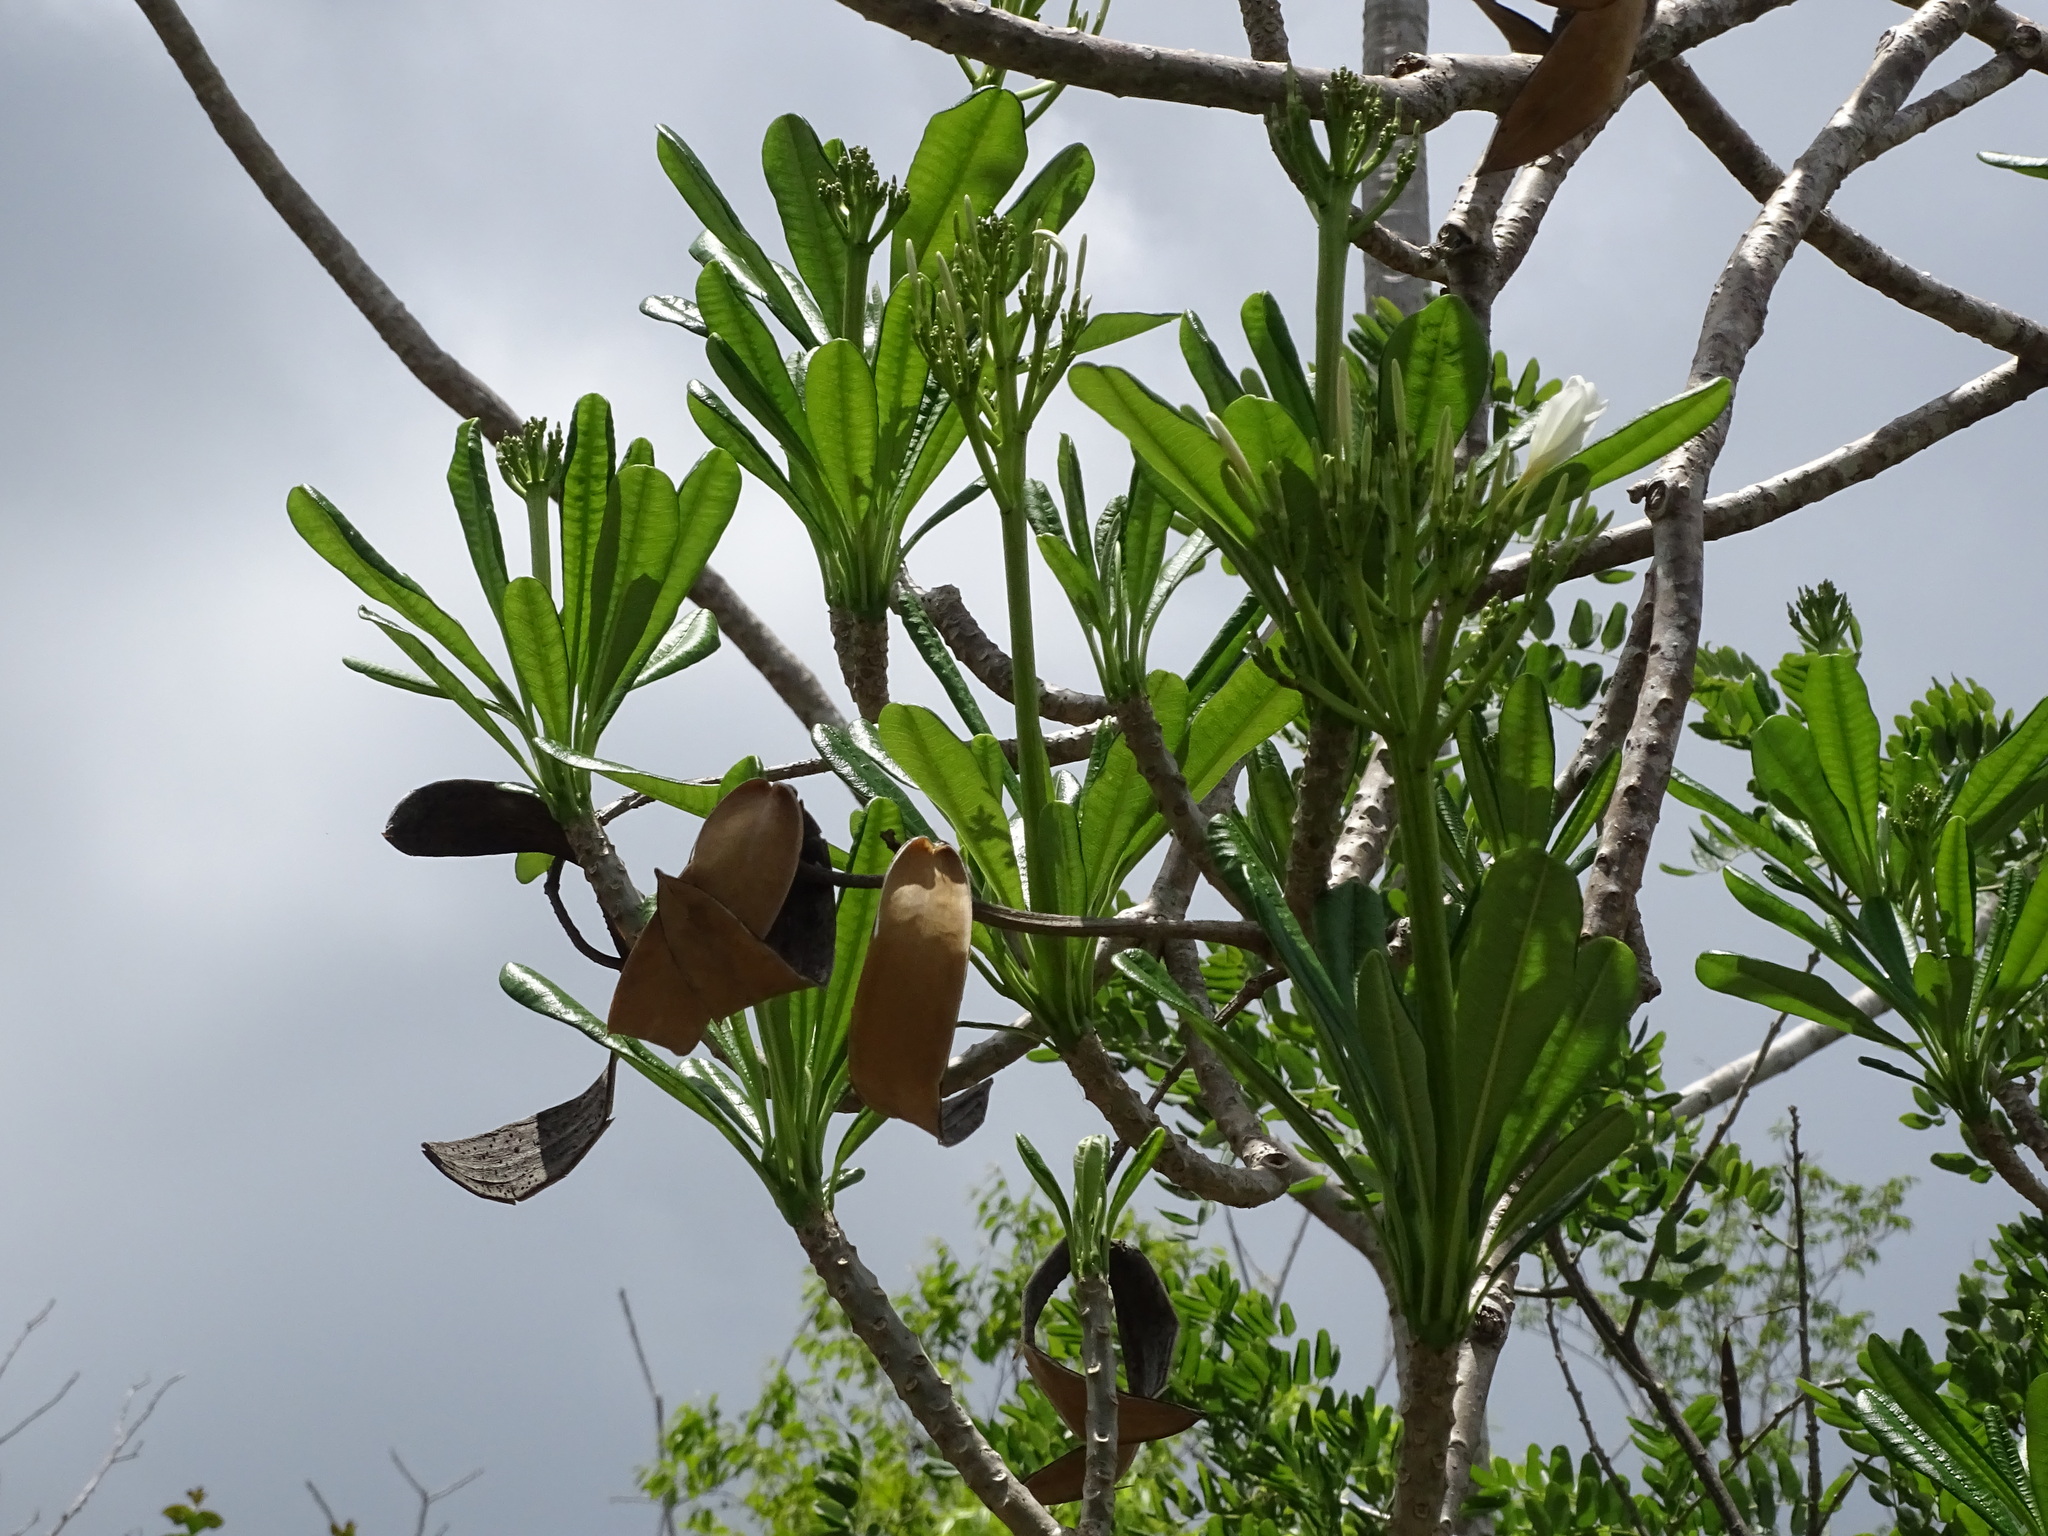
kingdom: Plantae
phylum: Tracheophyta
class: Magnoliopsida
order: Gentianales
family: Apocynaceae
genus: Plumeria
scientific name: Plumeria obtusa
